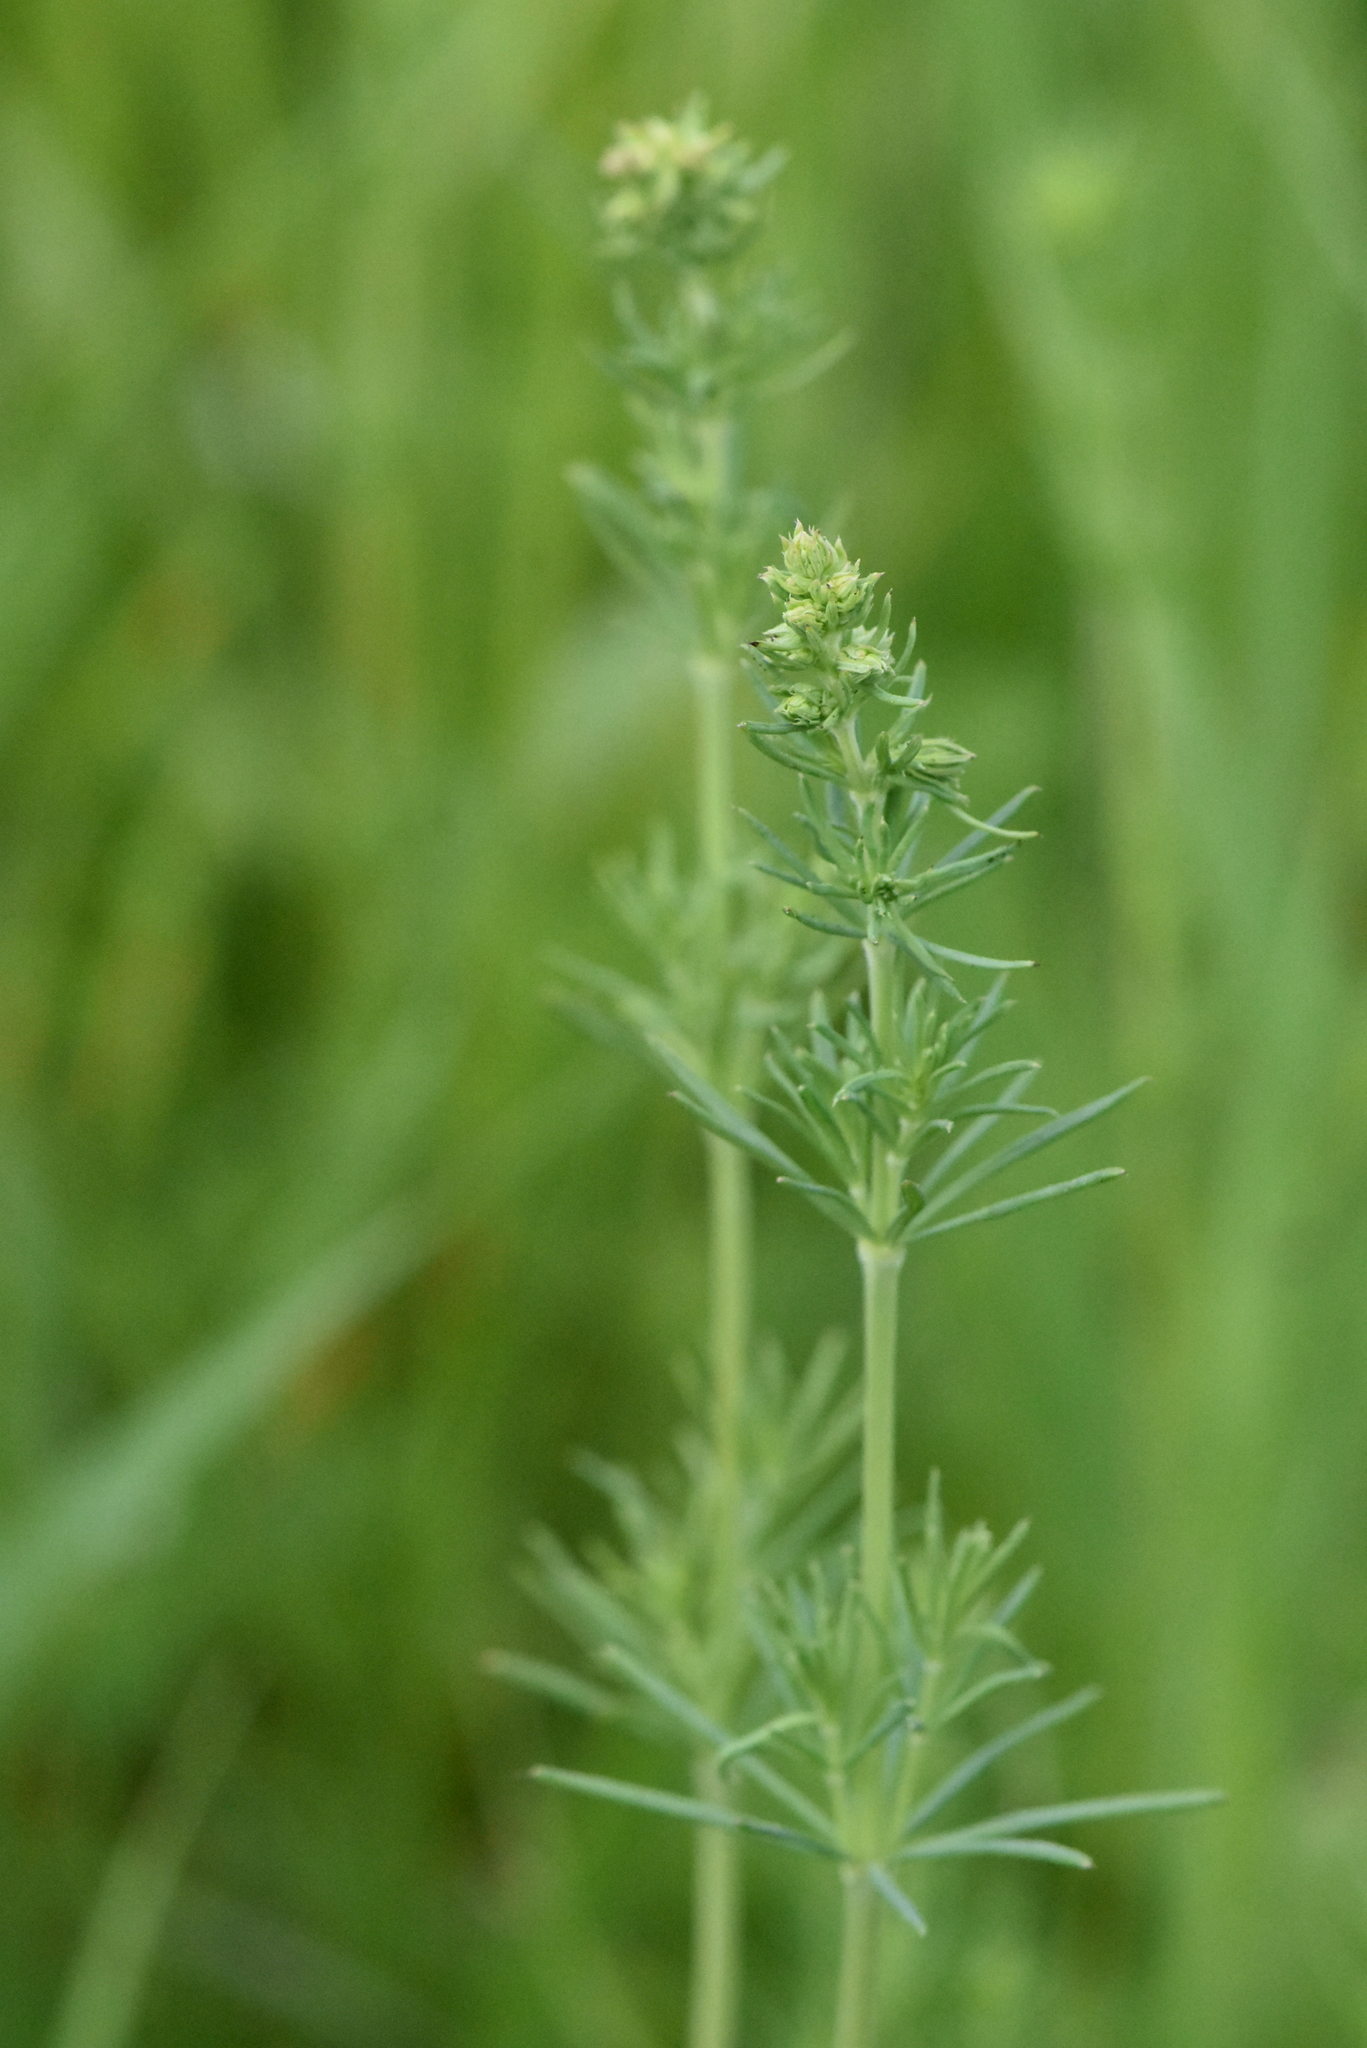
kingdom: Plantae
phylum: Tracheophyta
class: Magnoliopsida
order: Gentianales
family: Rubiaceae
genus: Galium
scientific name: Galium verum
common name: Lady's bedstraw
